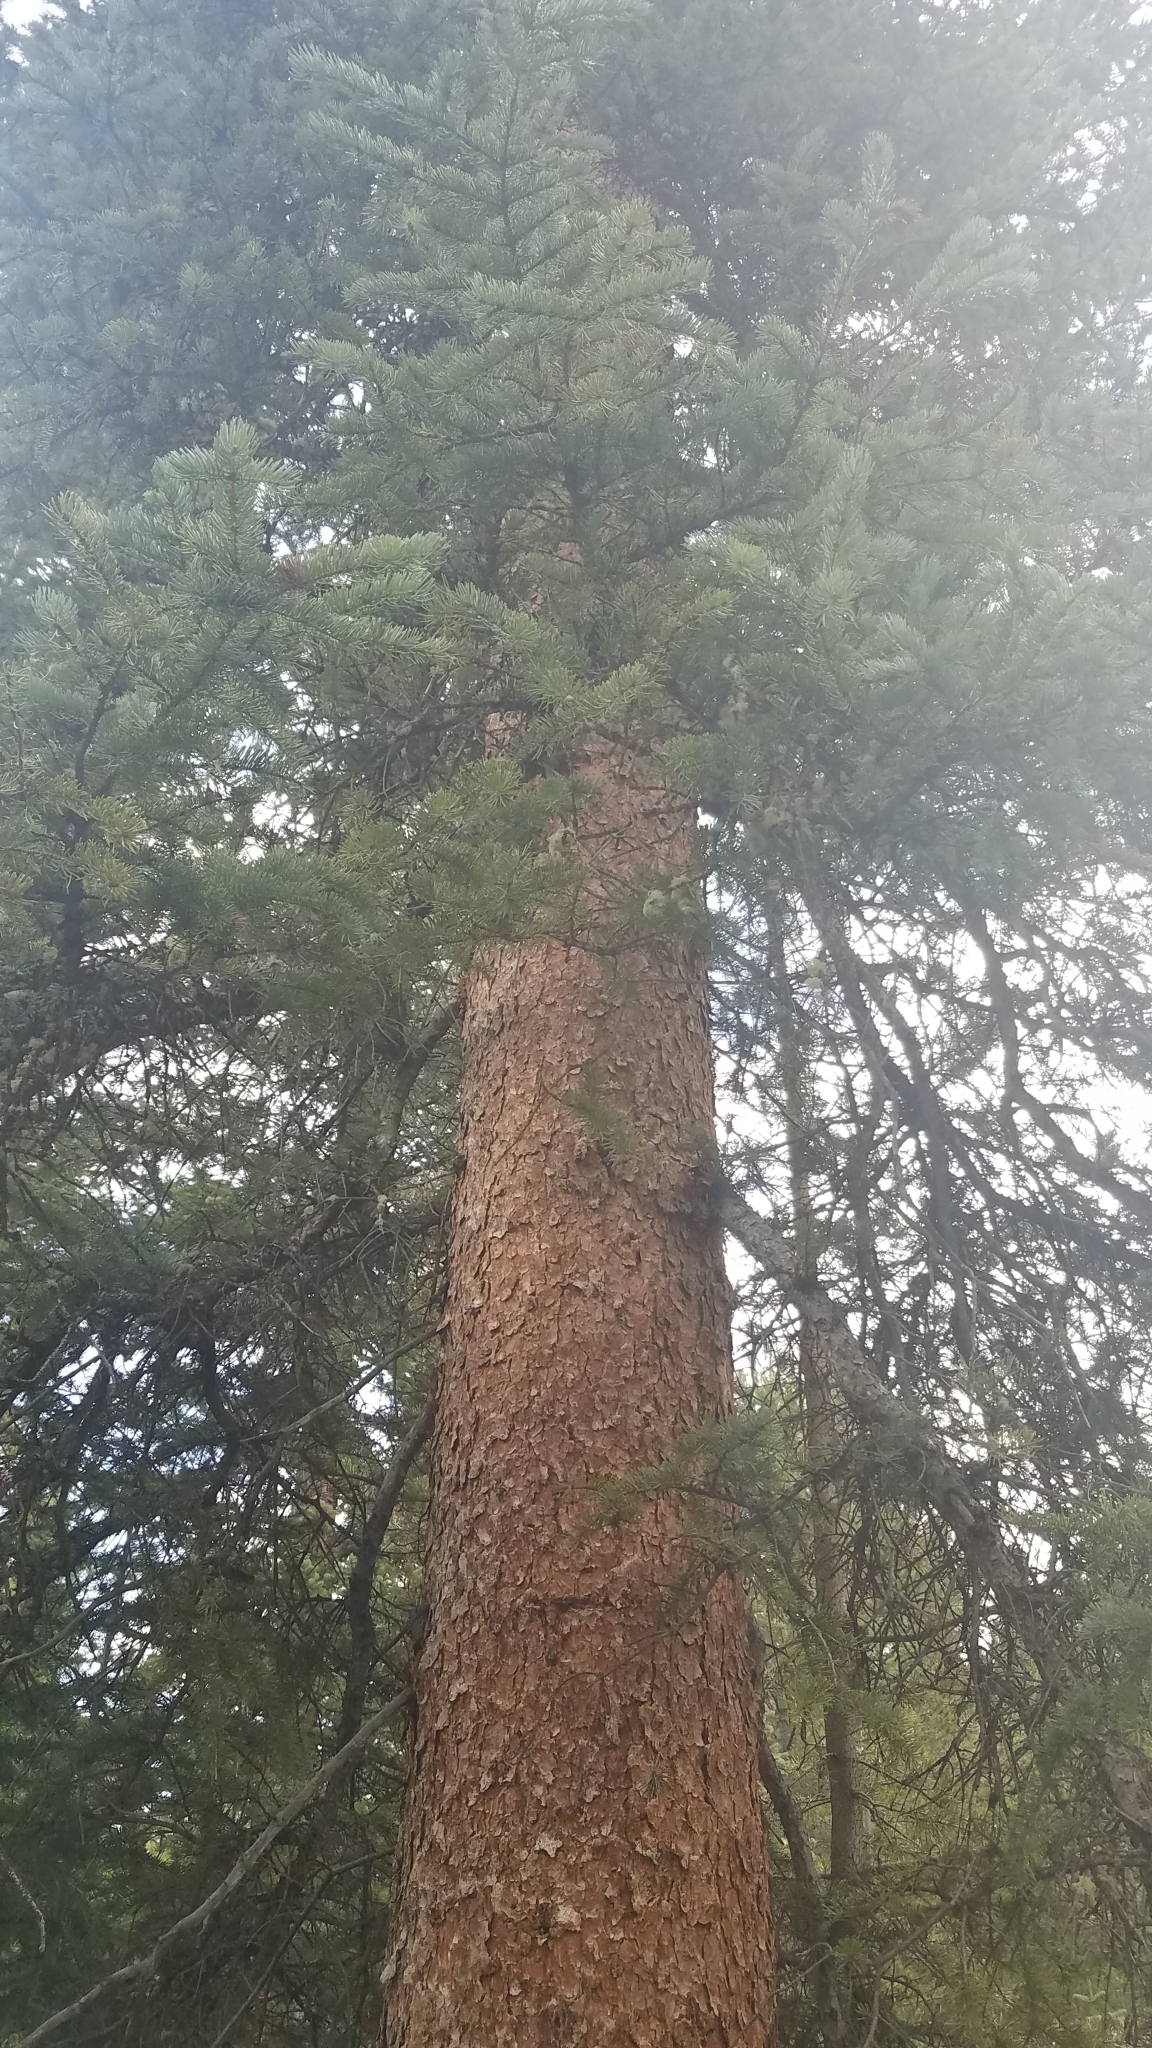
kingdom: Plantae
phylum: Tracheophyta
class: Pinopsida
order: Pinales
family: Pinaceae
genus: Picea
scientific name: Picea engelmannii
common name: Engelmann spruce
